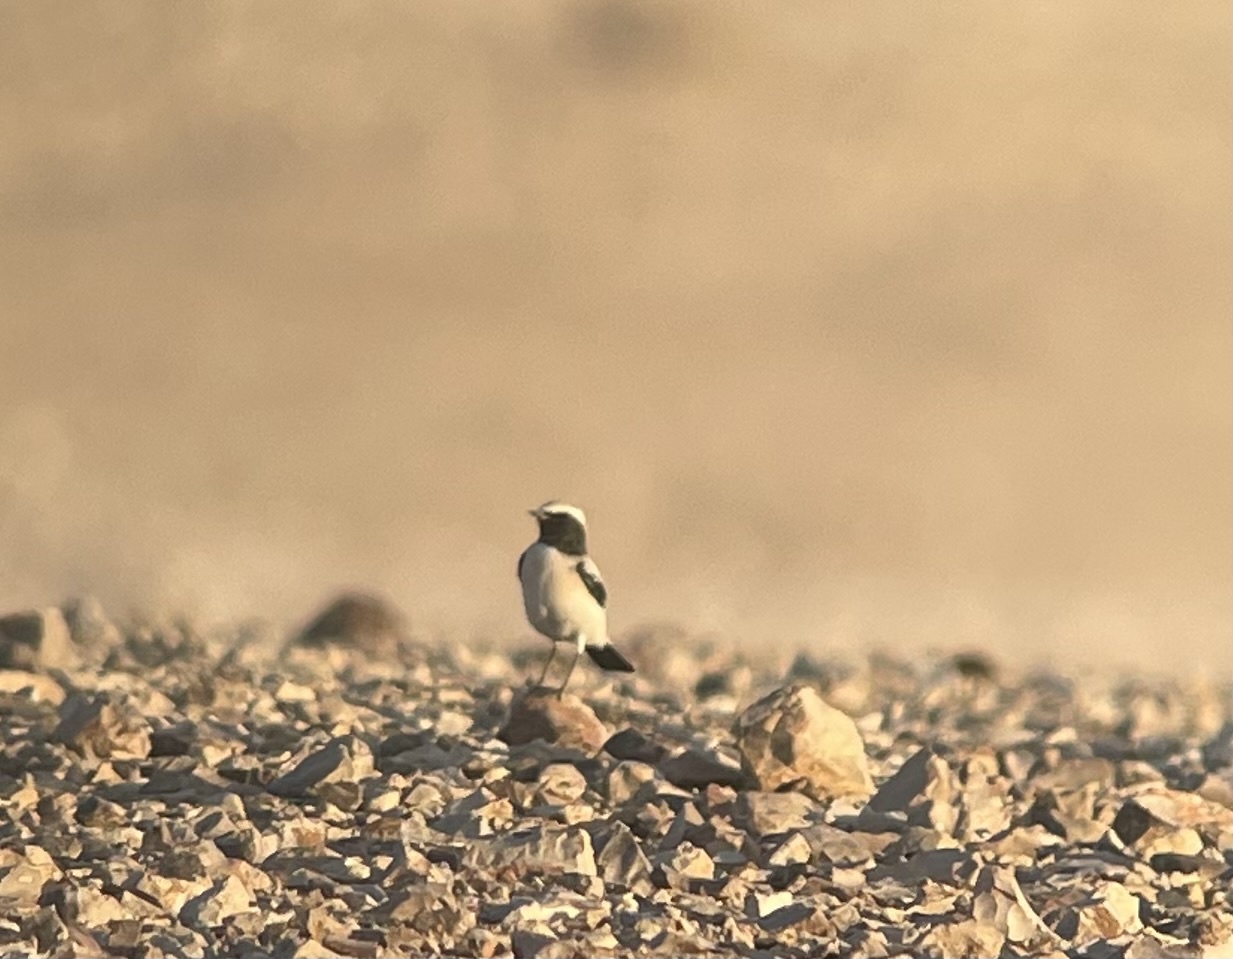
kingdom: Animalia
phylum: Chordata
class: Aves
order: Passeriformes
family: Muscicapidae
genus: Oenanthe
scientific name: Oenanthe deserti
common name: Desert wheatear
